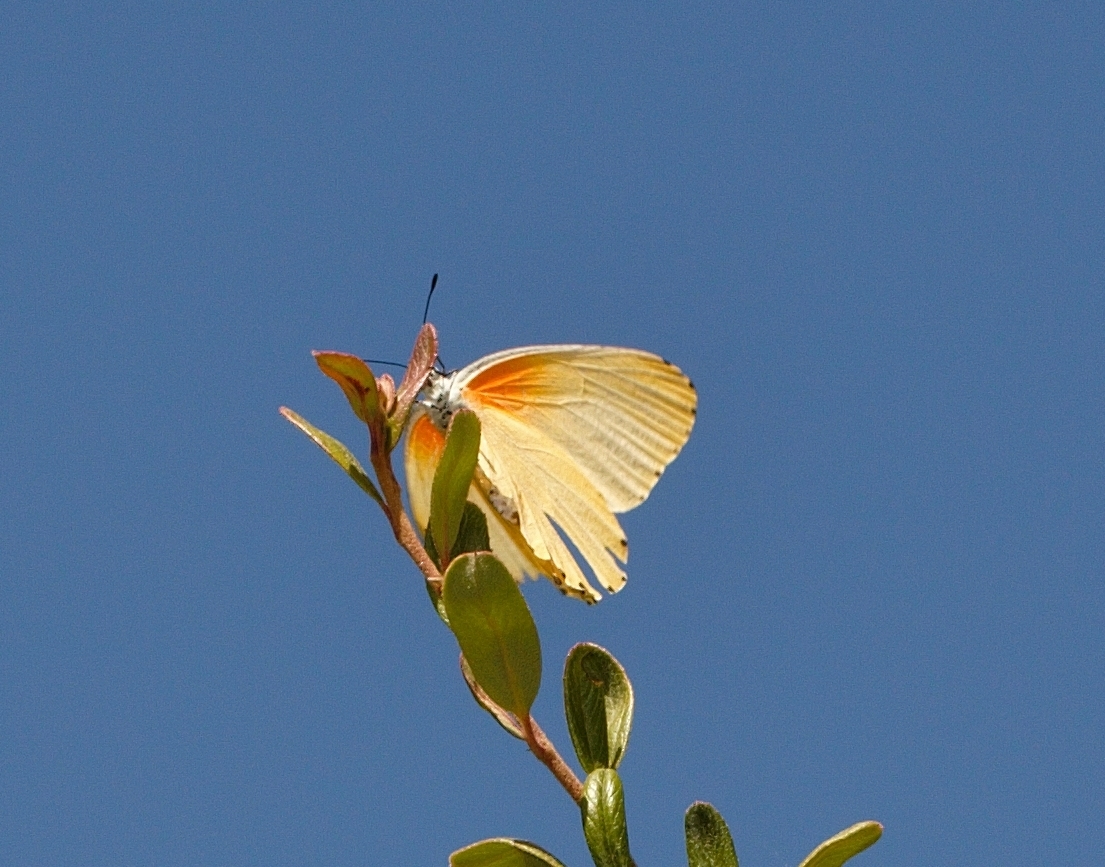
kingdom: Animalia
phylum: Arthropoda
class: Insecta
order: Lepidoptera
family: Pieridae
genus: Mylothris
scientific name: Mylothris agathina
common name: Eastern dotted border
